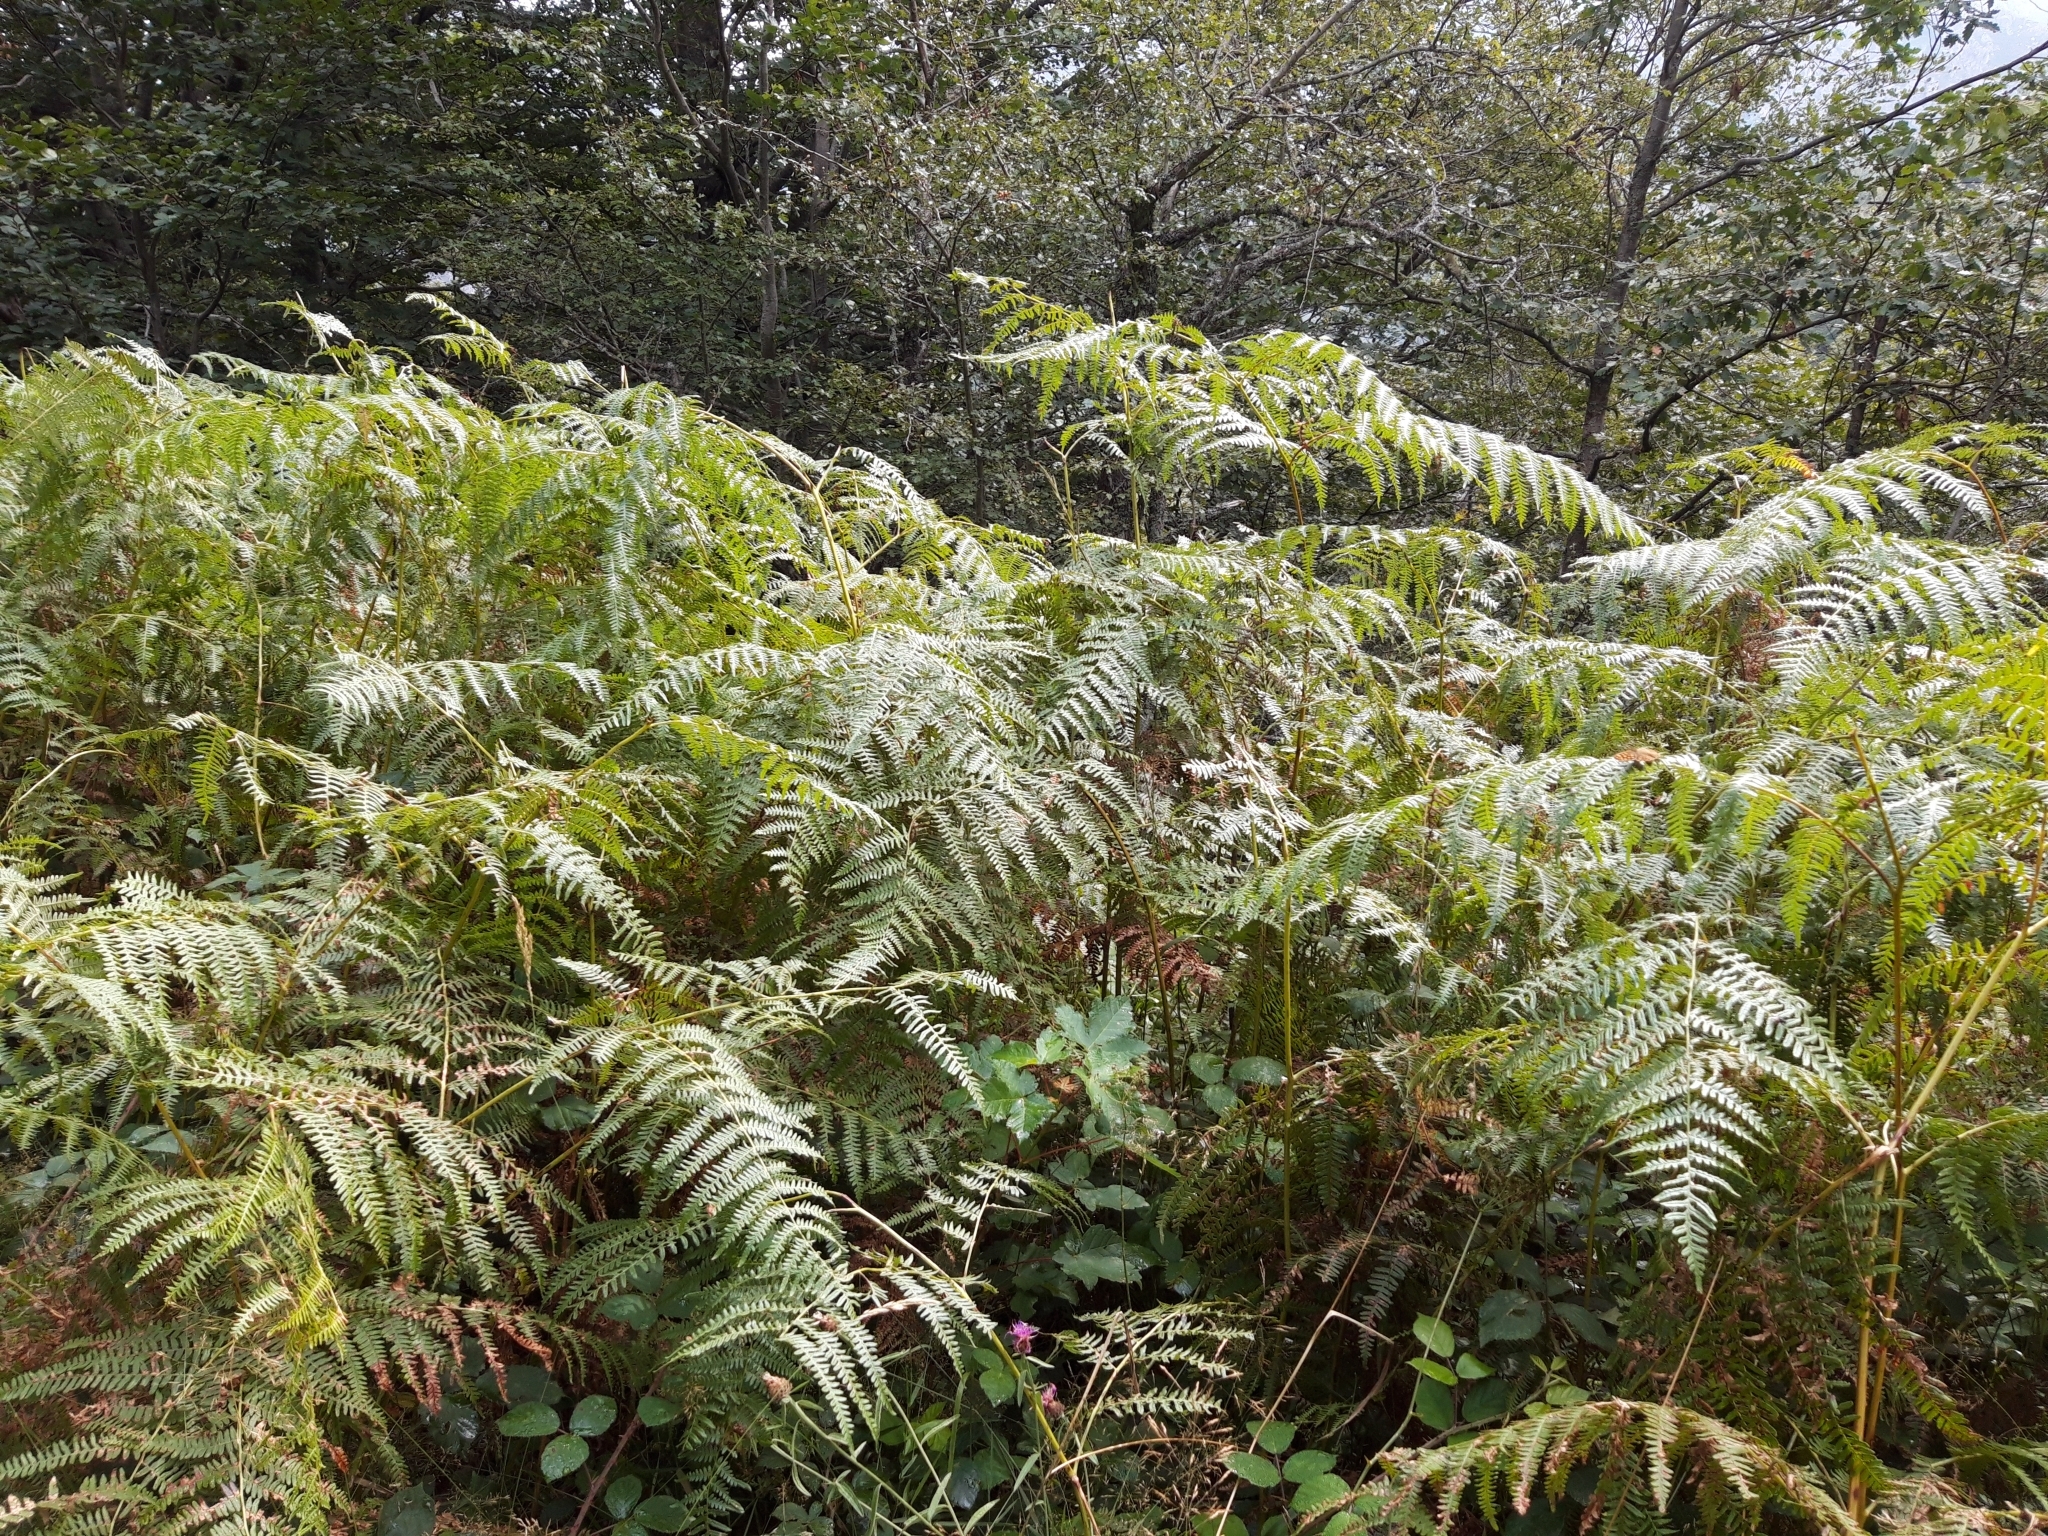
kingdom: Plantae
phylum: Tracheophyta
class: Polypodiopsida
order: Polypodiales
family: Dennstaedtiaceae
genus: Pteridium
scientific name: Pteridium aquilinum
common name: Bracken
